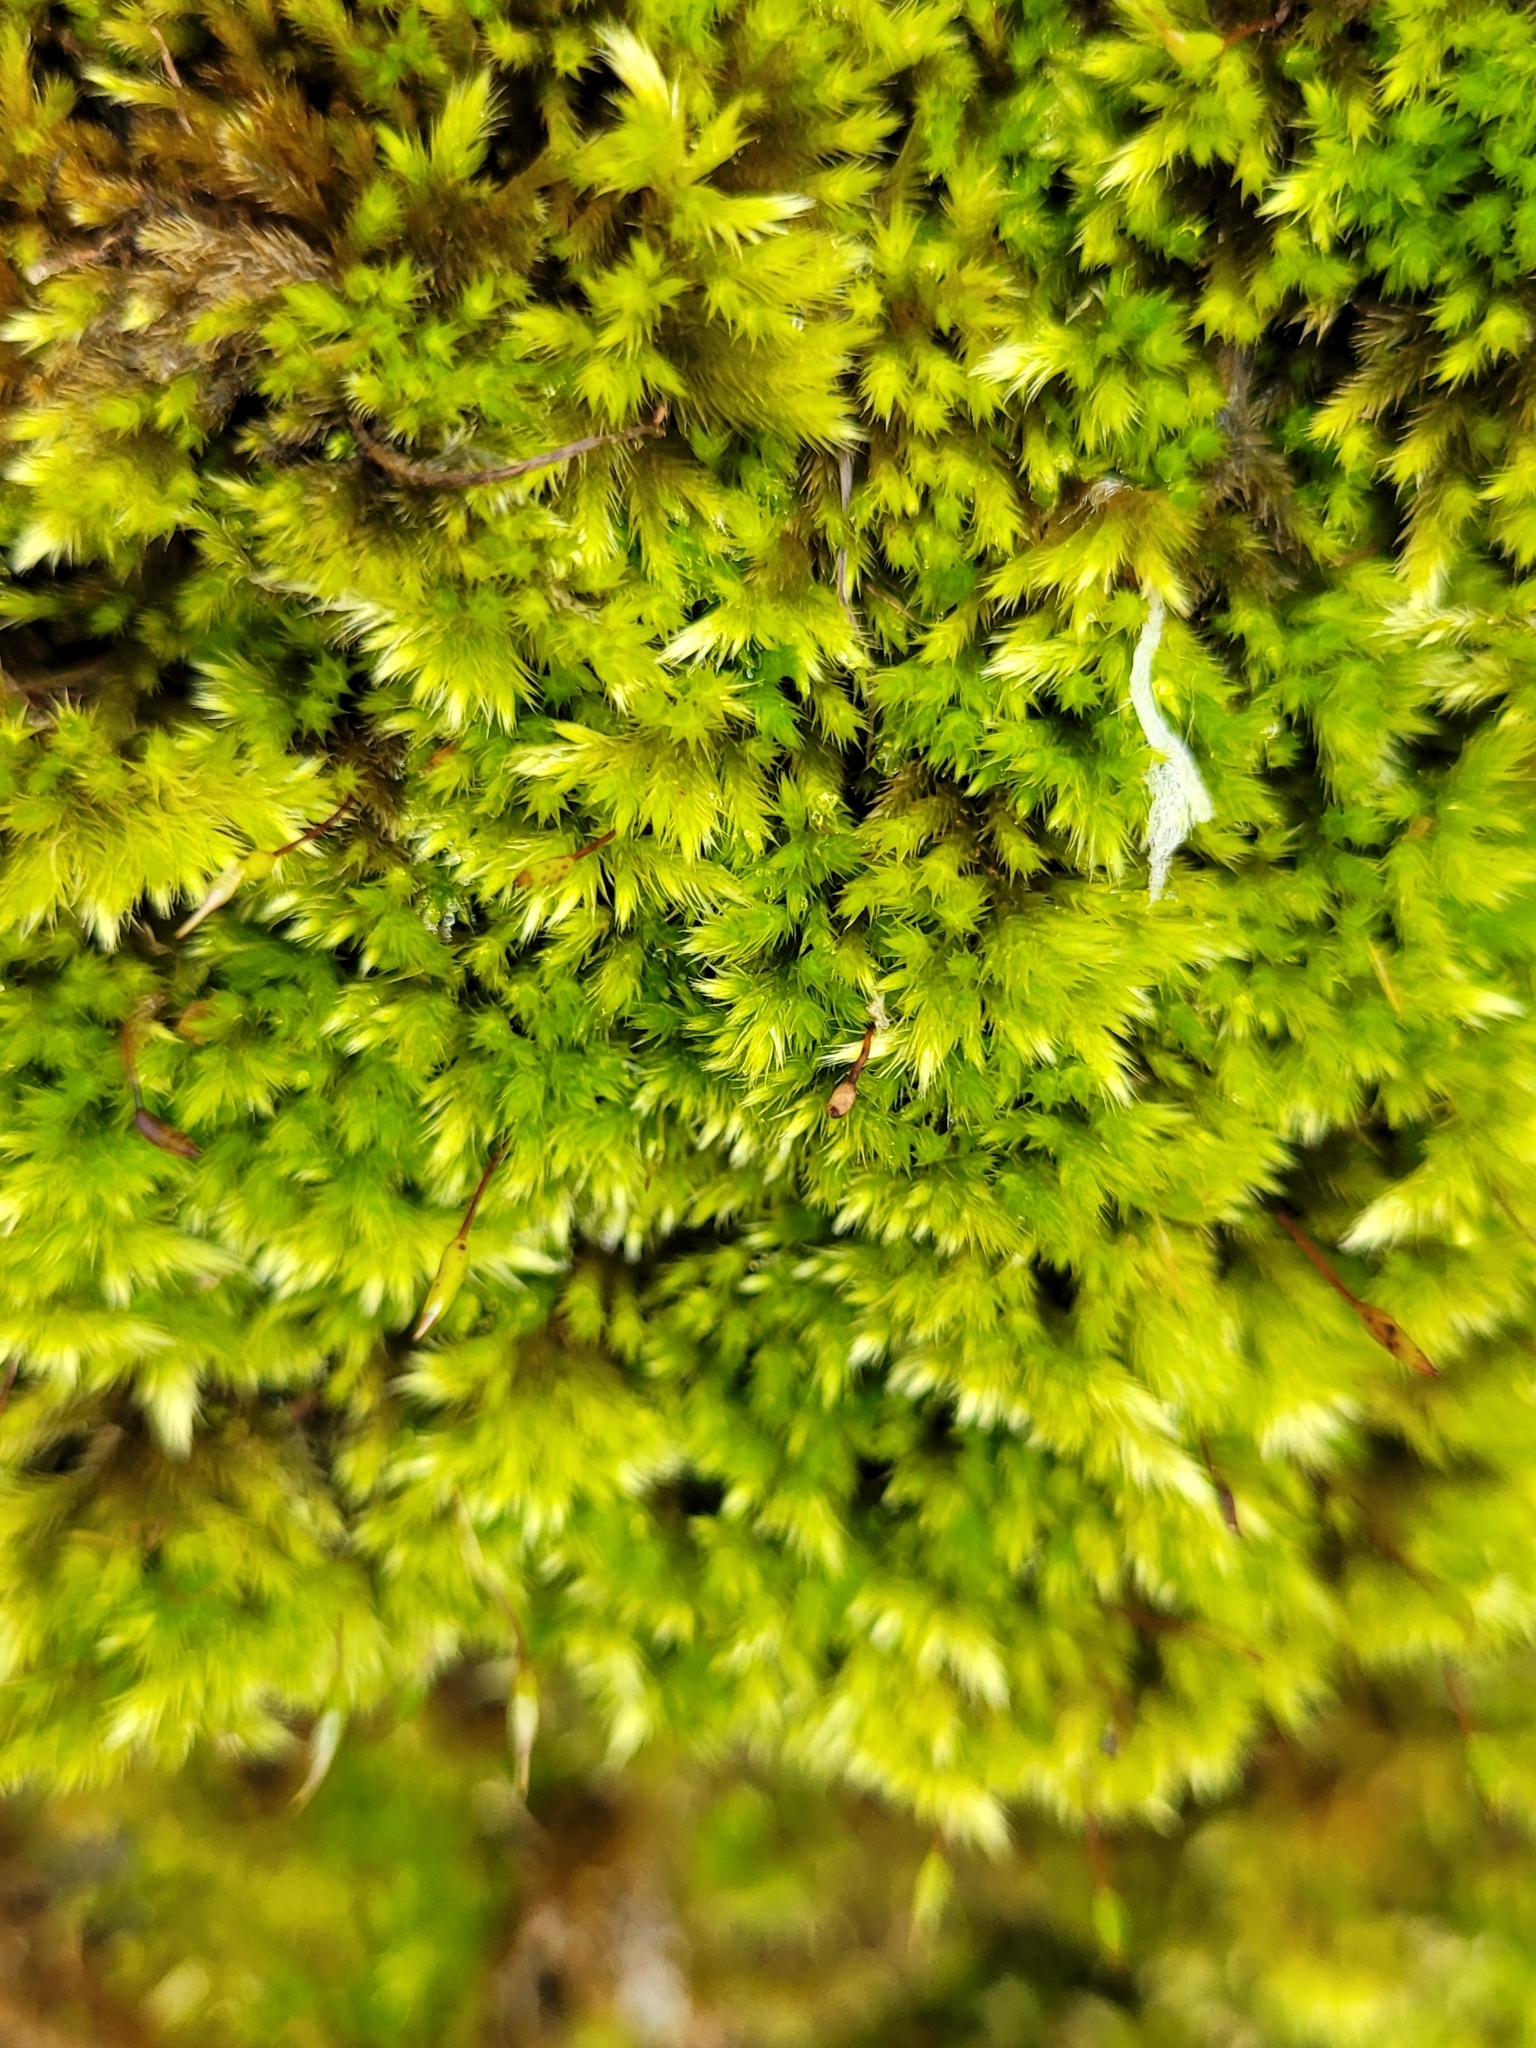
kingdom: Plantae
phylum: Bryophyta
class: Bryopsida
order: Hypnales
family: Brachytheciaceae
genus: Homalothecium
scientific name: Homalothecium sericeum
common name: Silky wall feather-moss
